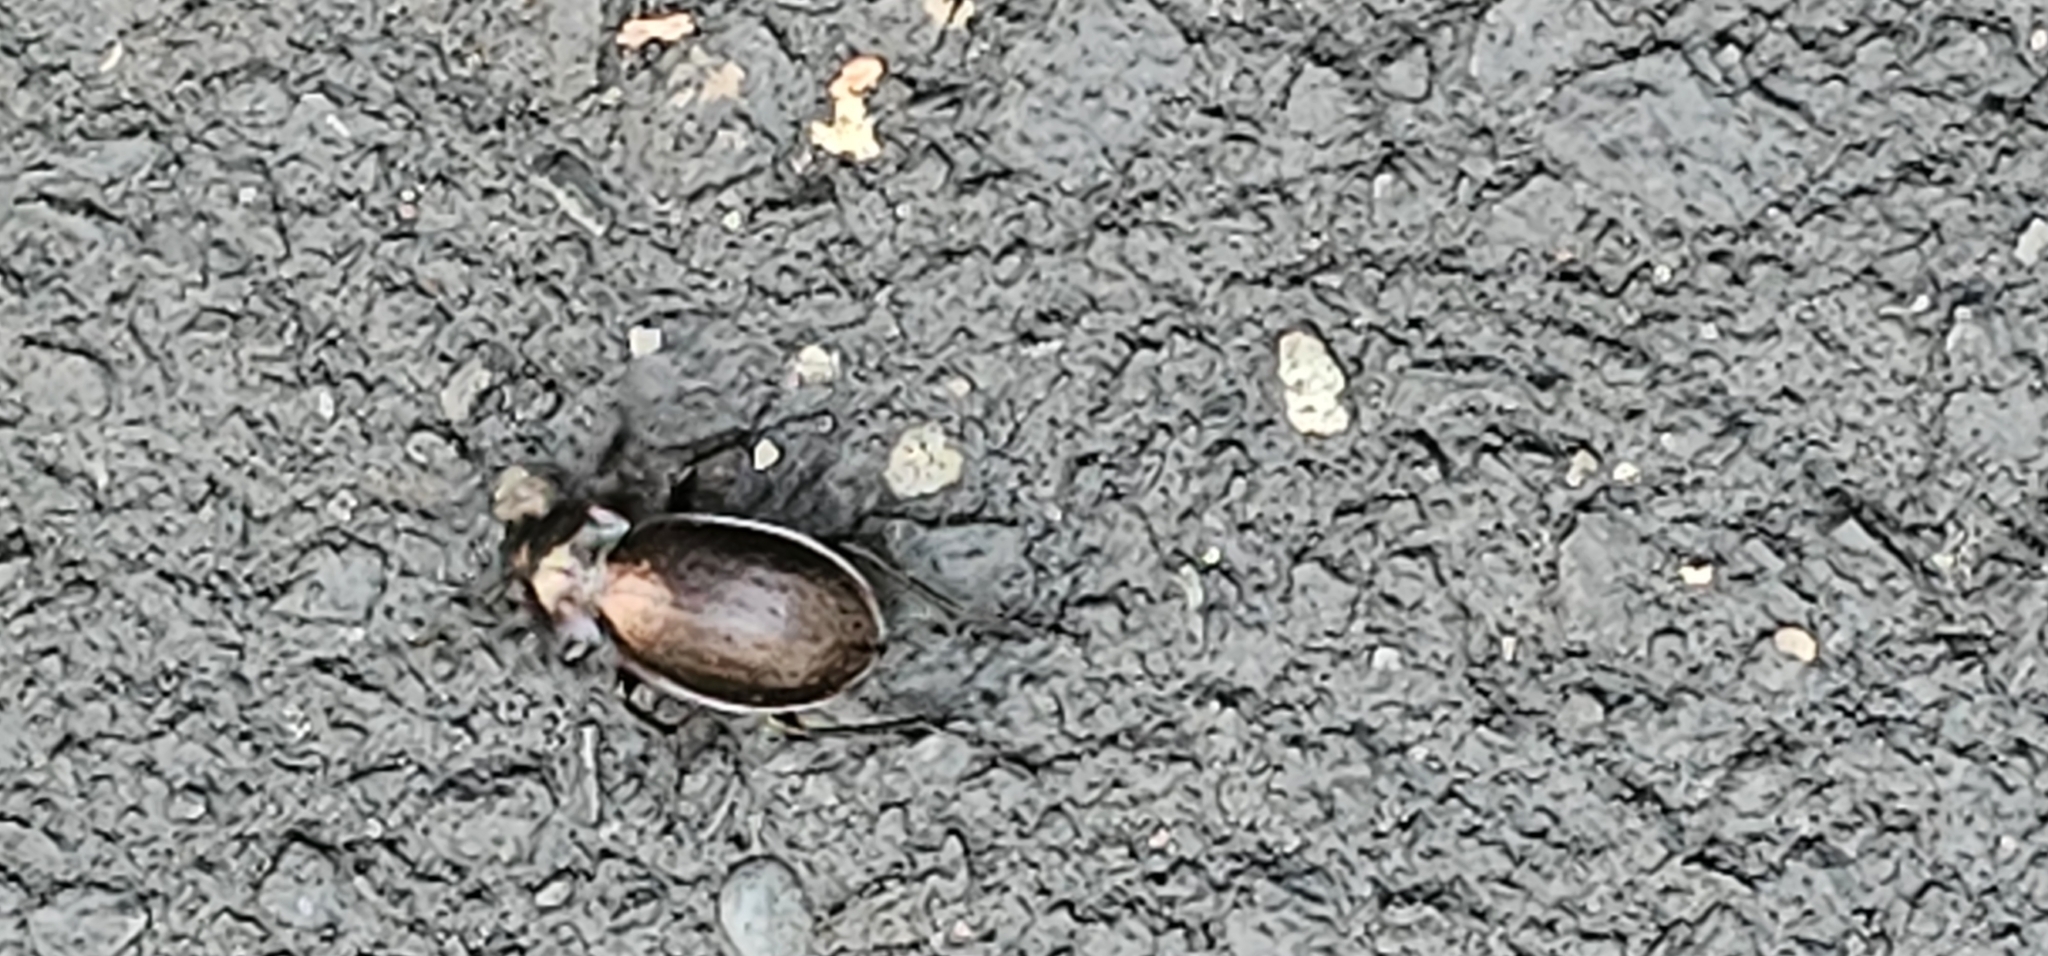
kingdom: Animalia
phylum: Arthropoda
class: Insecta
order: Coleoptera
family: Carabidae
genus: Carabus
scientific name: Carabus nemoralis
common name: European ground beetle
